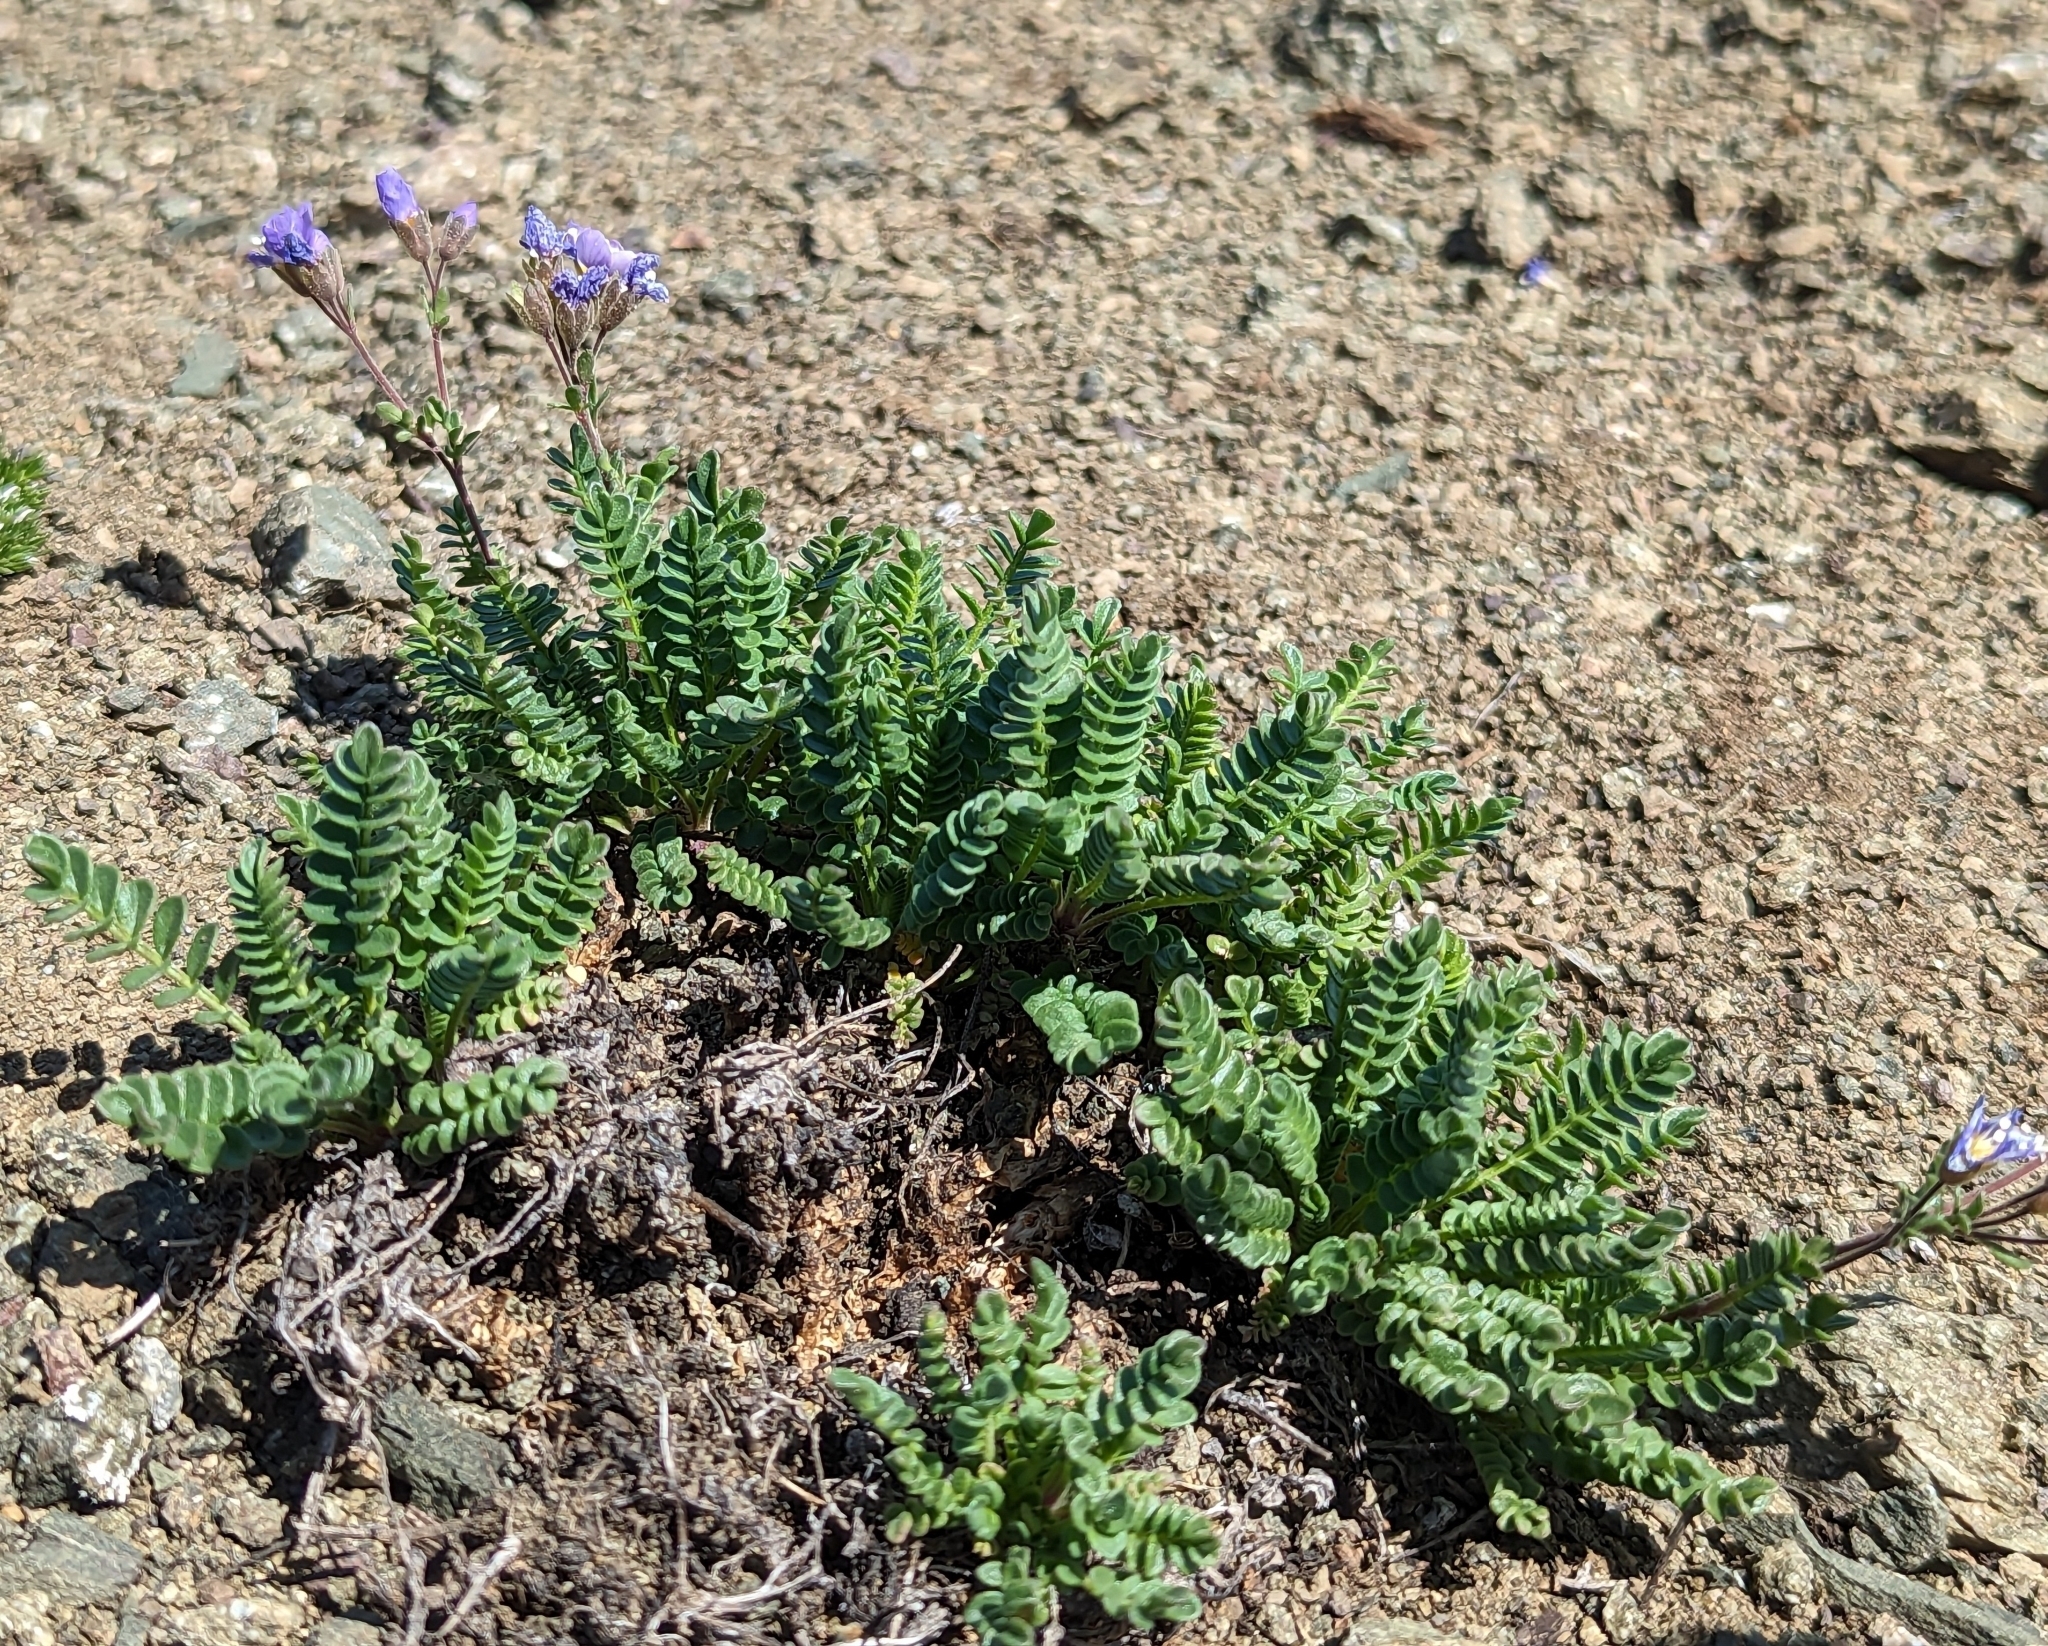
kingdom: Plantae
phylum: Tracheophyta
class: Magnoliopsida
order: Ericales
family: Polemoniaceae
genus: Polemonium
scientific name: Polemonium pulcherrimum
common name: Short jacob's-ladder
